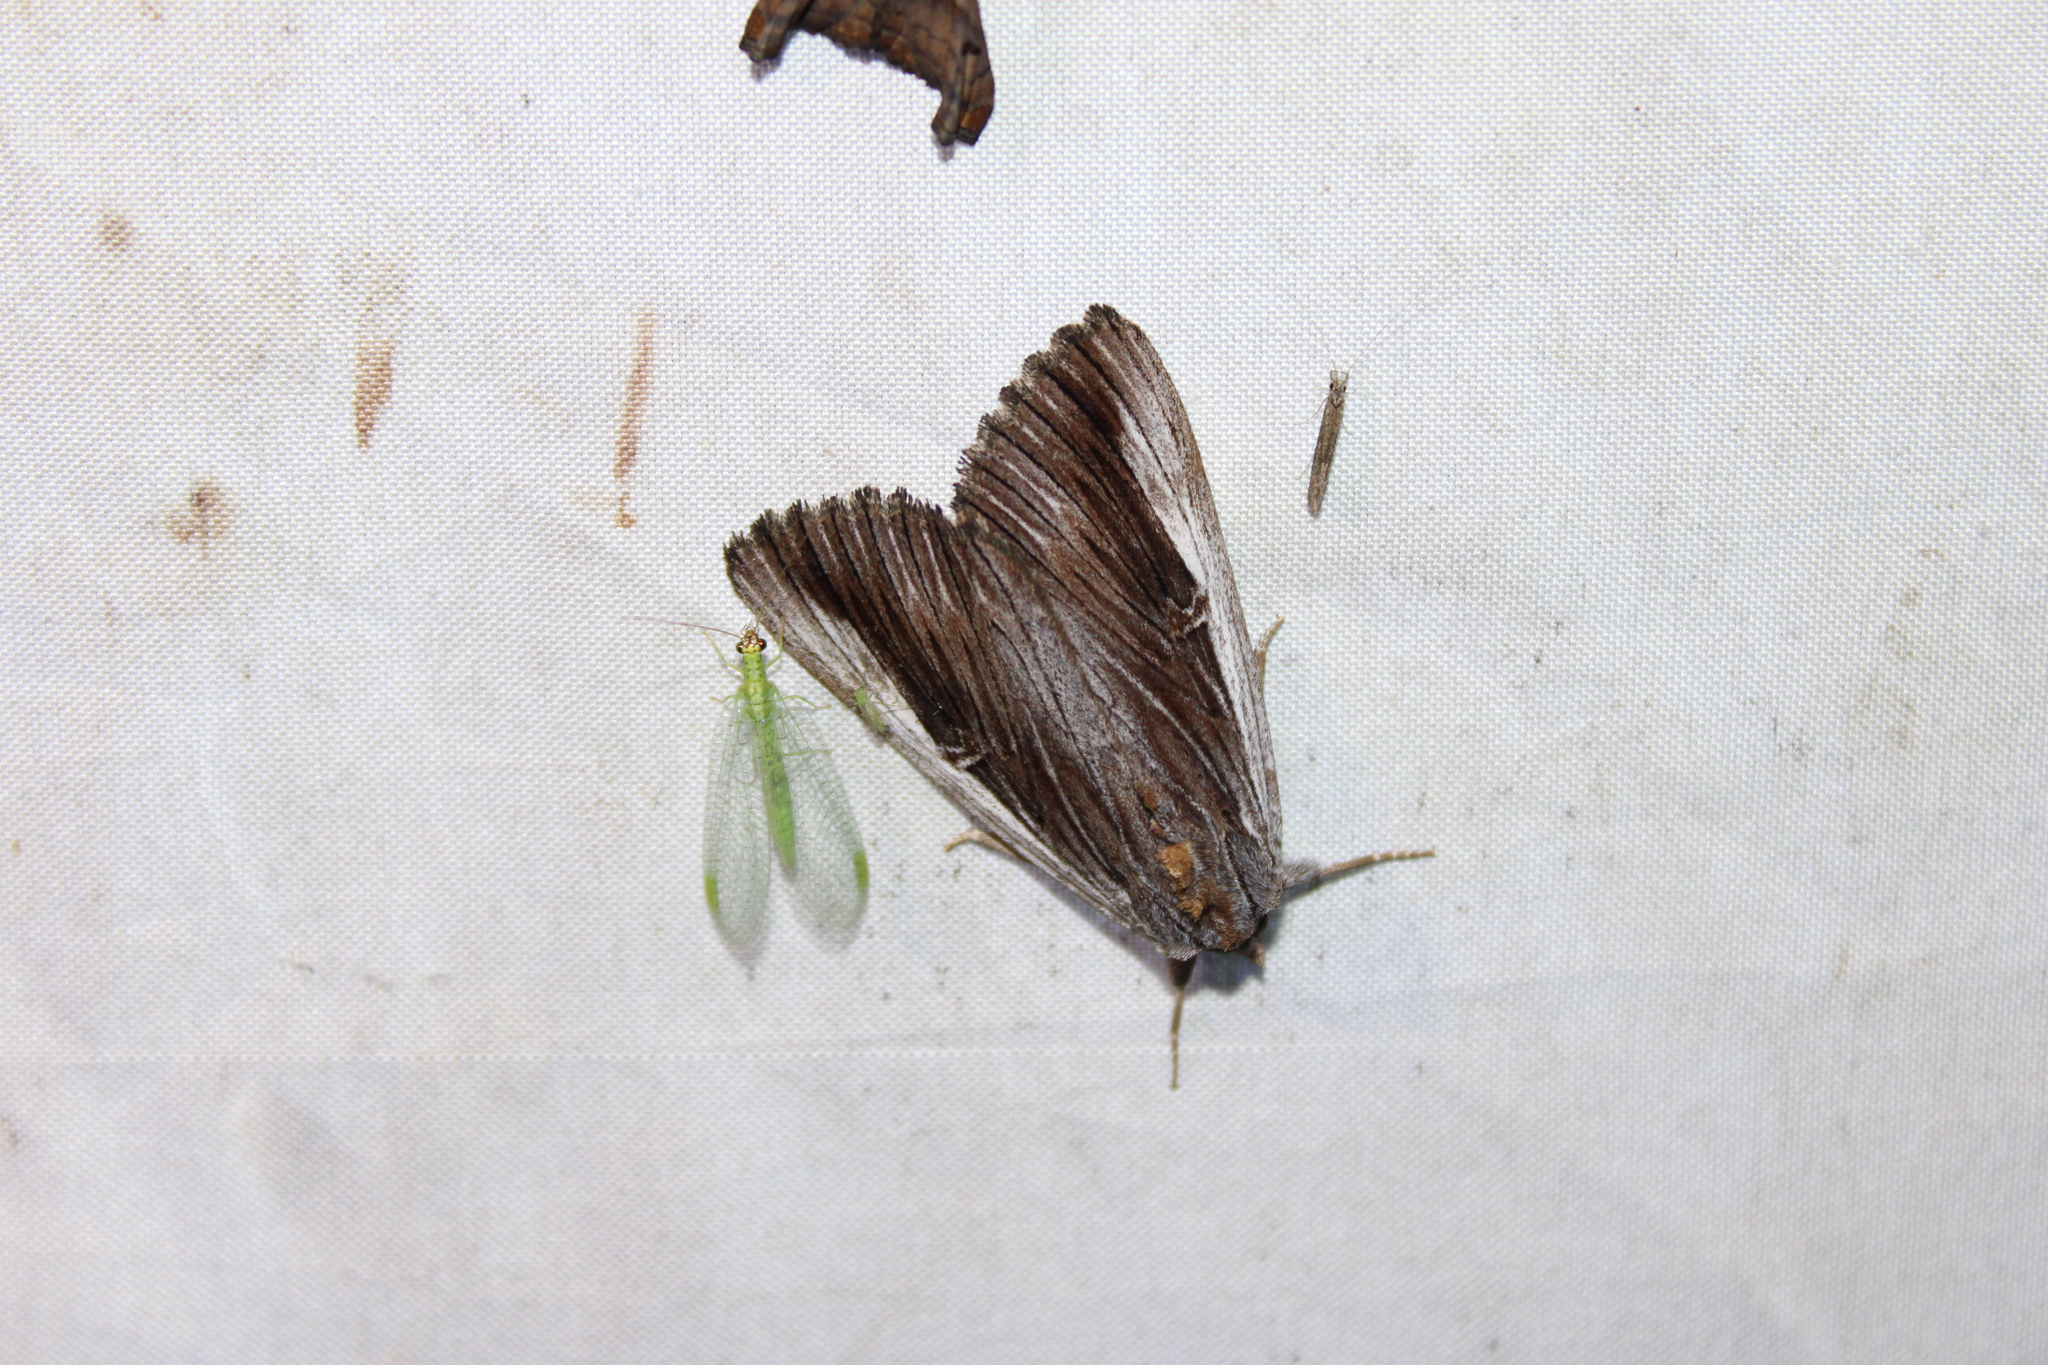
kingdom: Animalia
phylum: Arthropoda
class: Insecta
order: Lepidoptera
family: Erebidae
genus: Catocala
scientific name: Catocala herodias
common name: Pine barrens underwing
